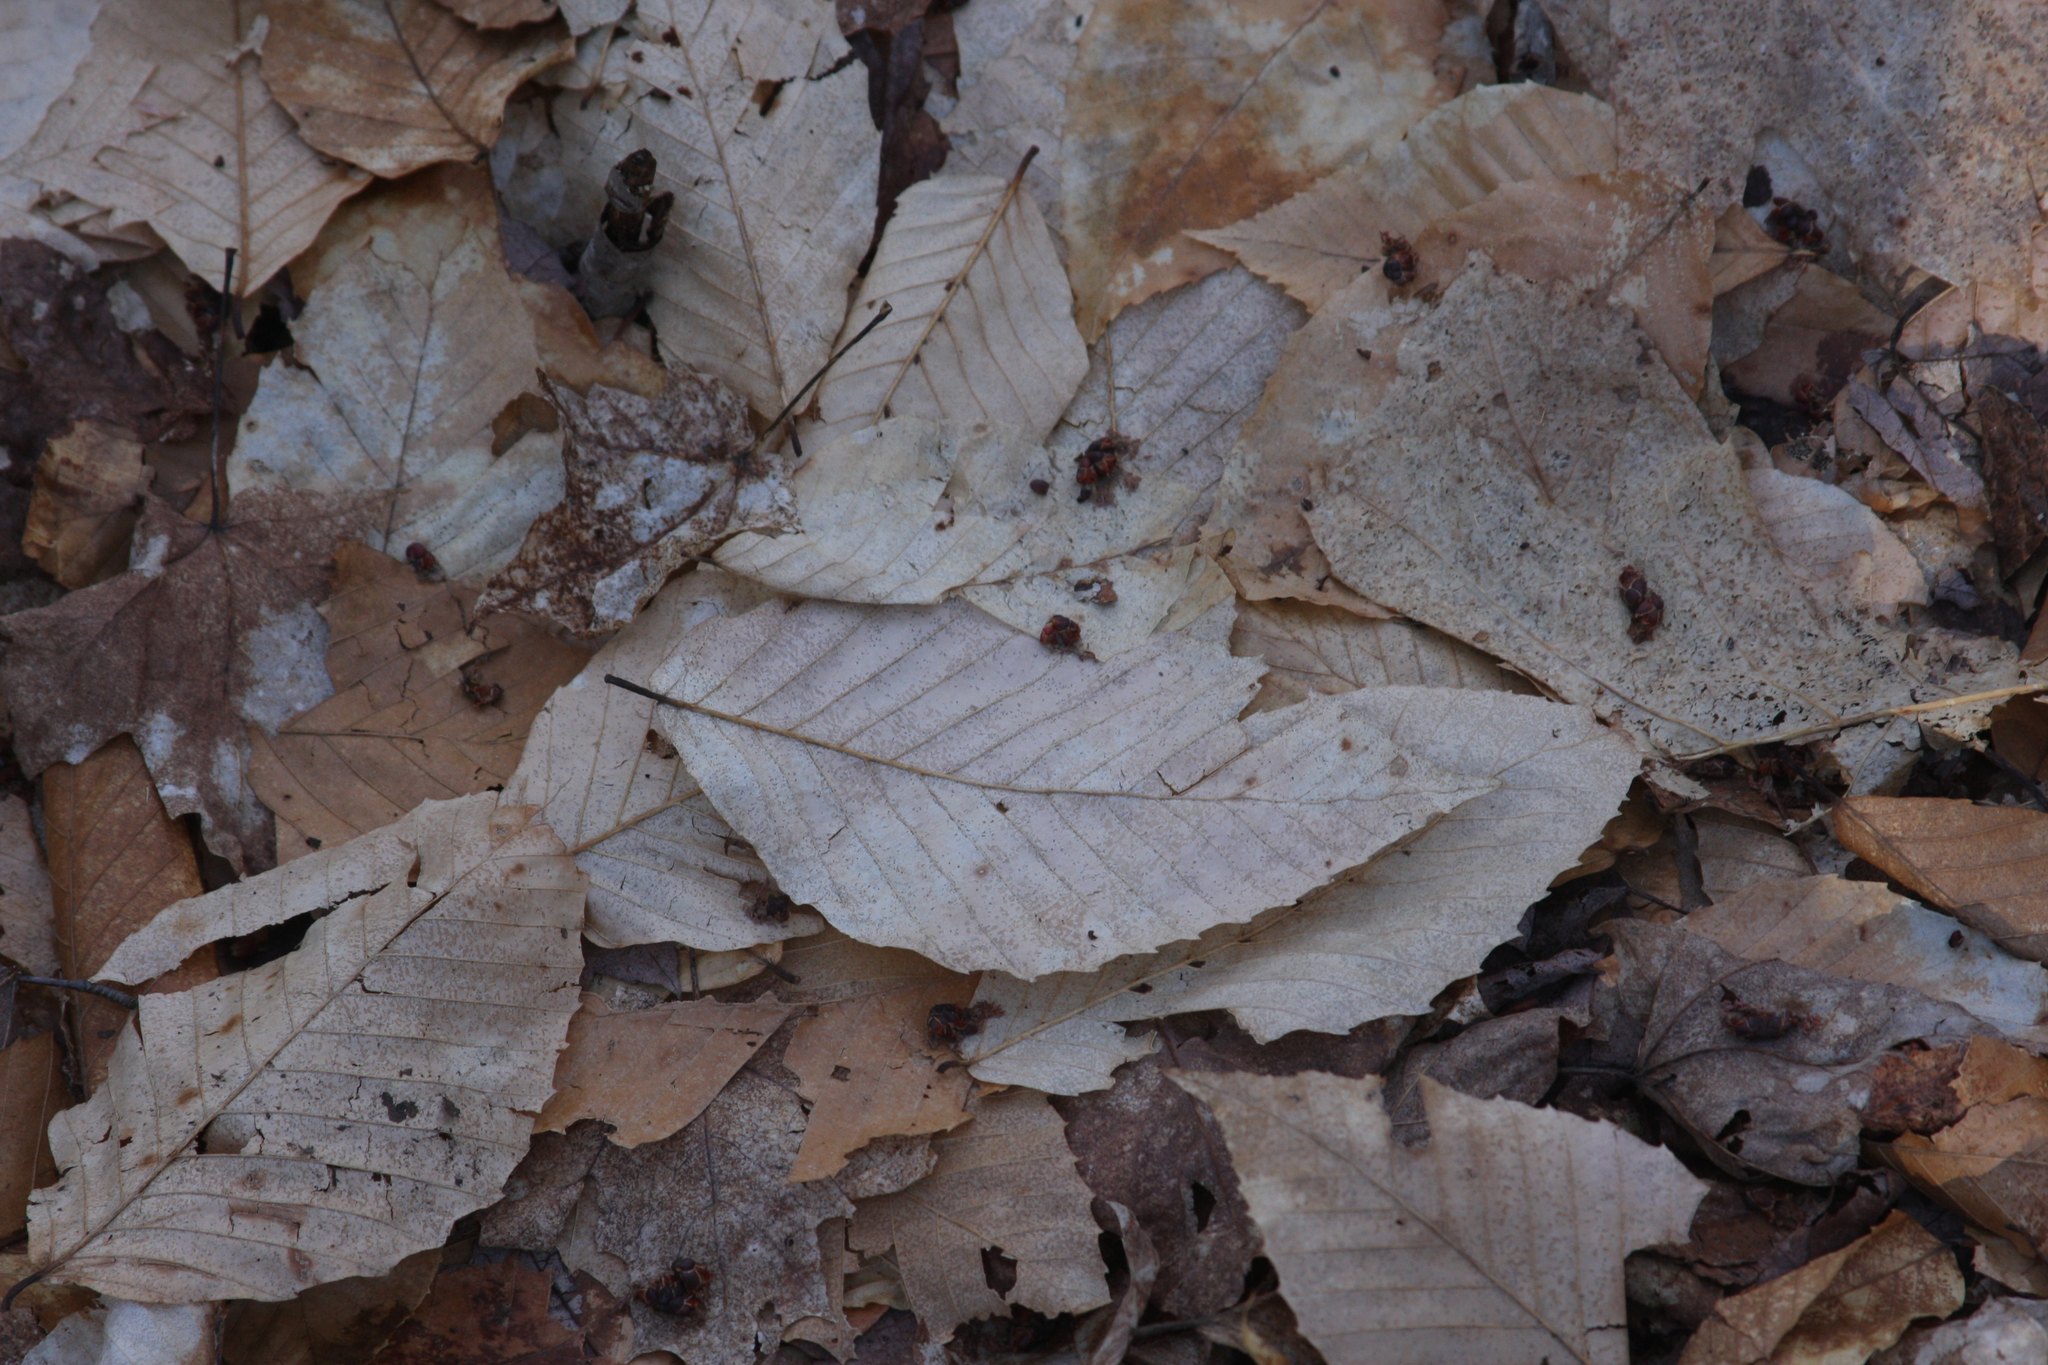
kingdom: Plantae
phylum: Tracheophyta
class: Magnoliopsida
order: Fagales
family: Fagaceae
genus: Fagus
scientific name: Fagus grandifolia
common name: American beech
